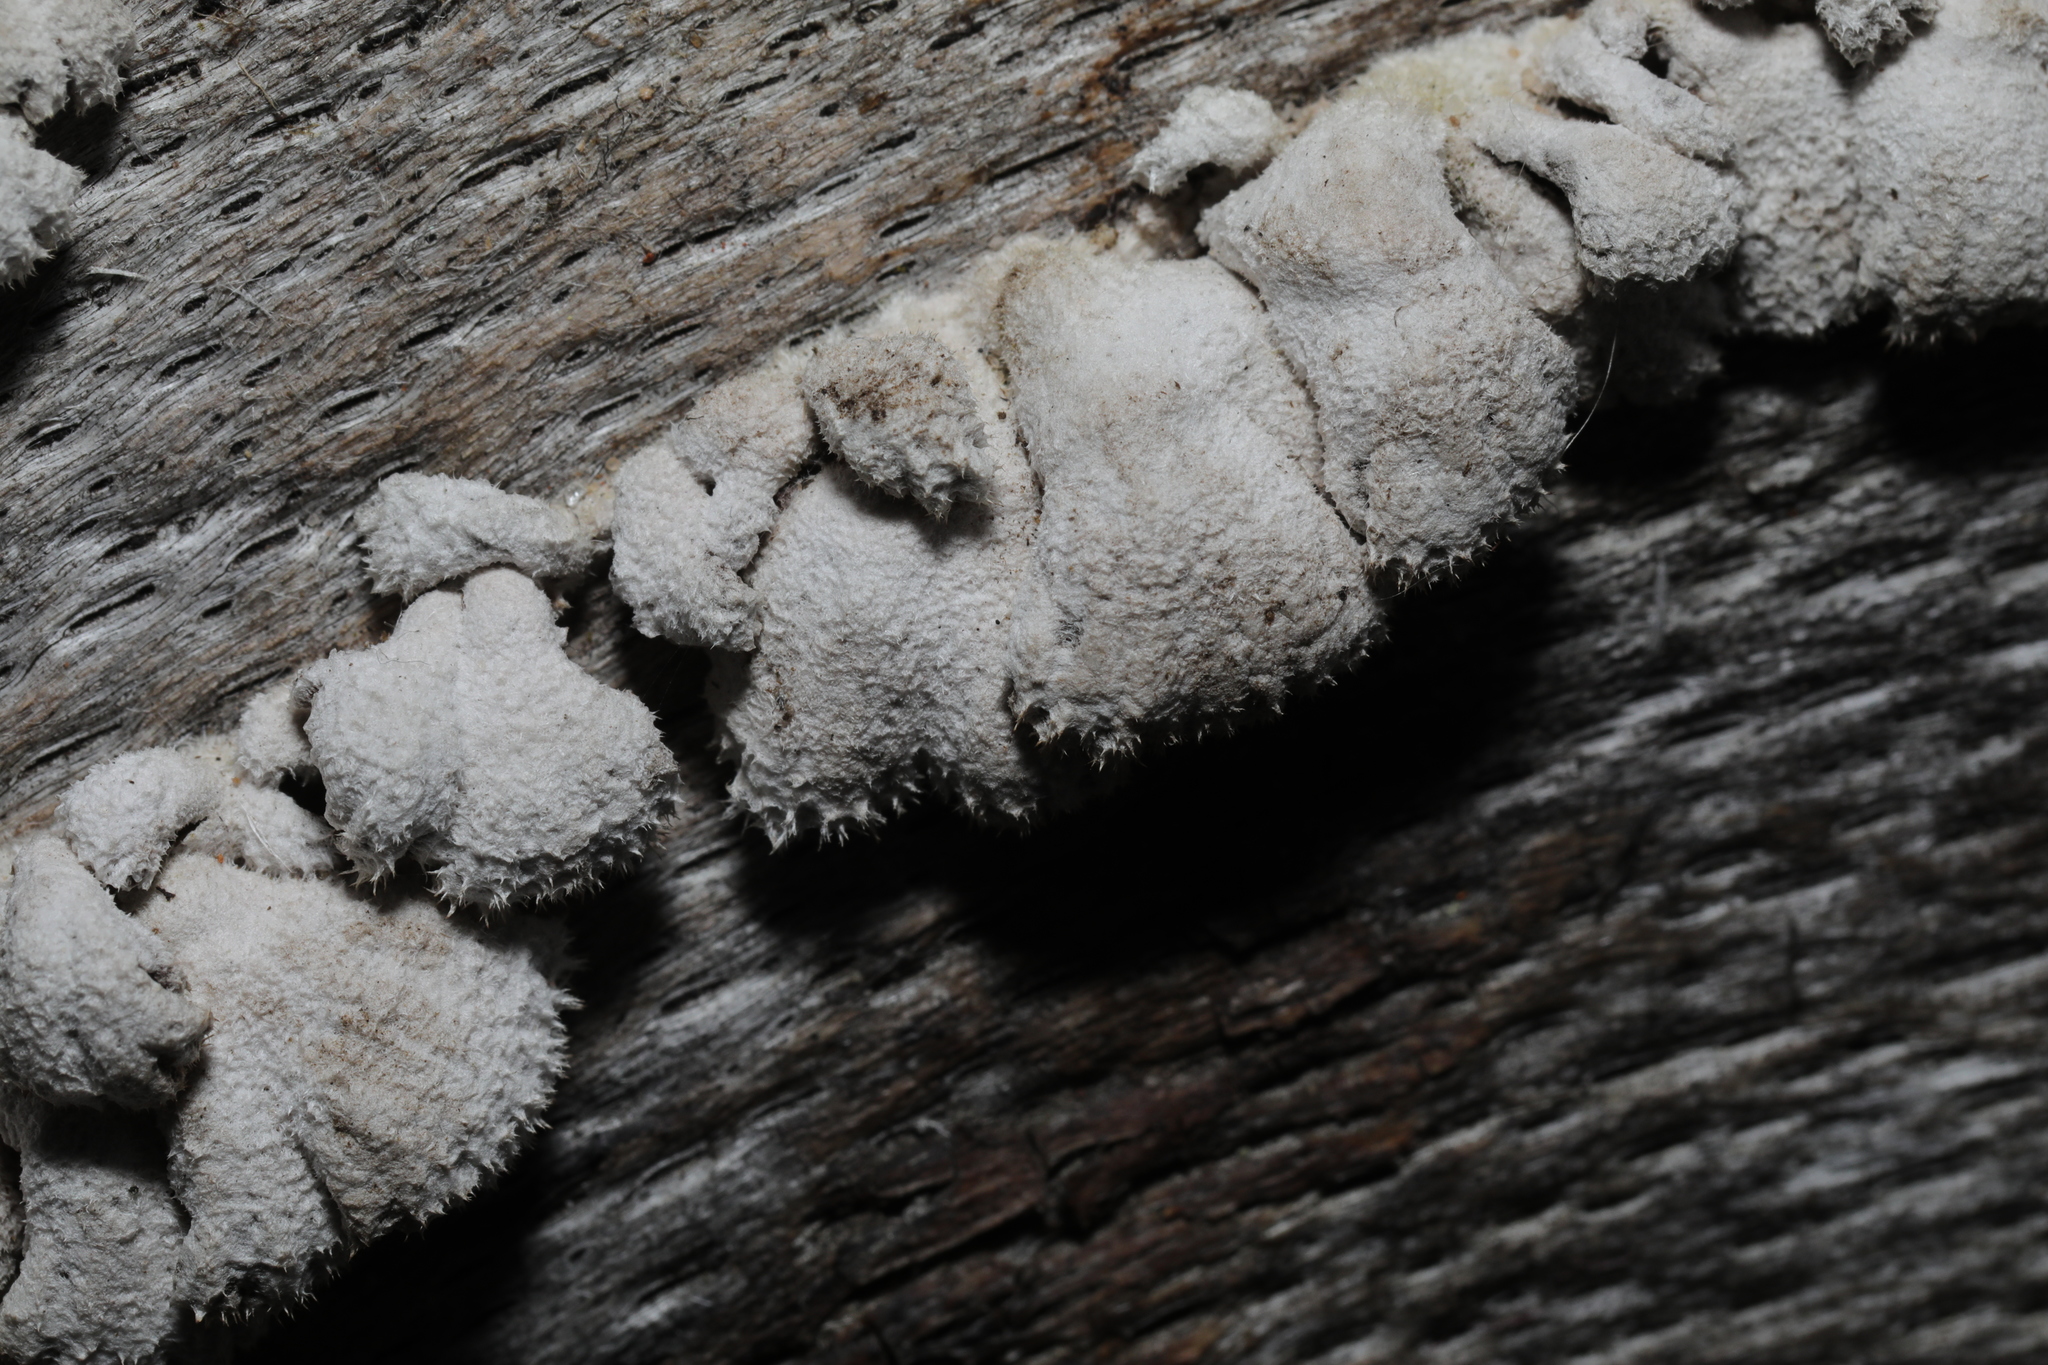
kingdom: Fungi
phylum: Basidiomycota
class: Agaricomycetes
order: Agaricales
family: Schizophyllaceae
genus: Schizophyllum
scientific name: Schizophyllum commune
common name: Common porecrust
